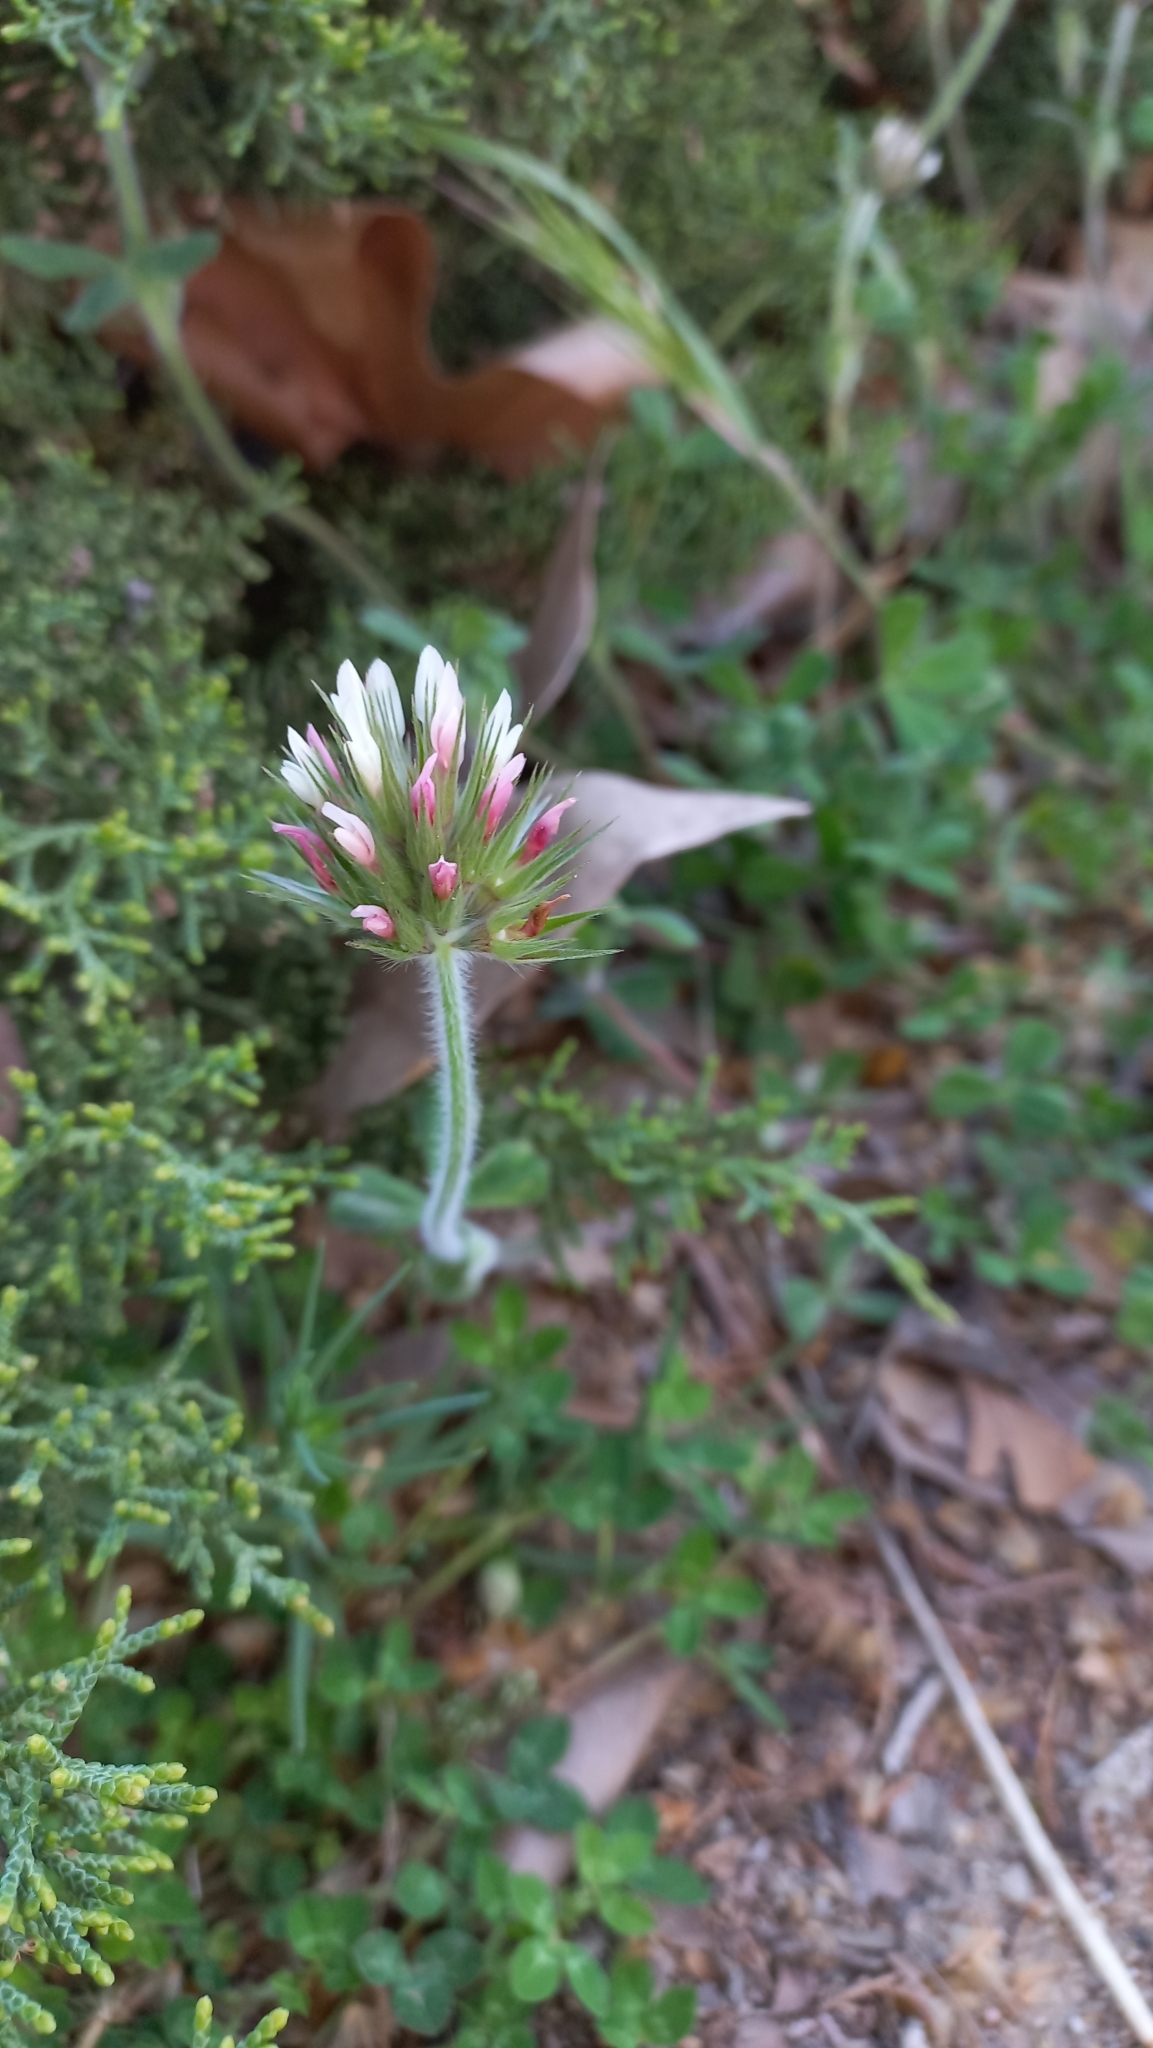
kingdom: Plantae
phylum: Tracheophyta
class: Magnoliopsida
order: Fabales
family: Fabaceae
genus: Trifolium
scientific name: Trifolium stellatum
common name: Starry clover
